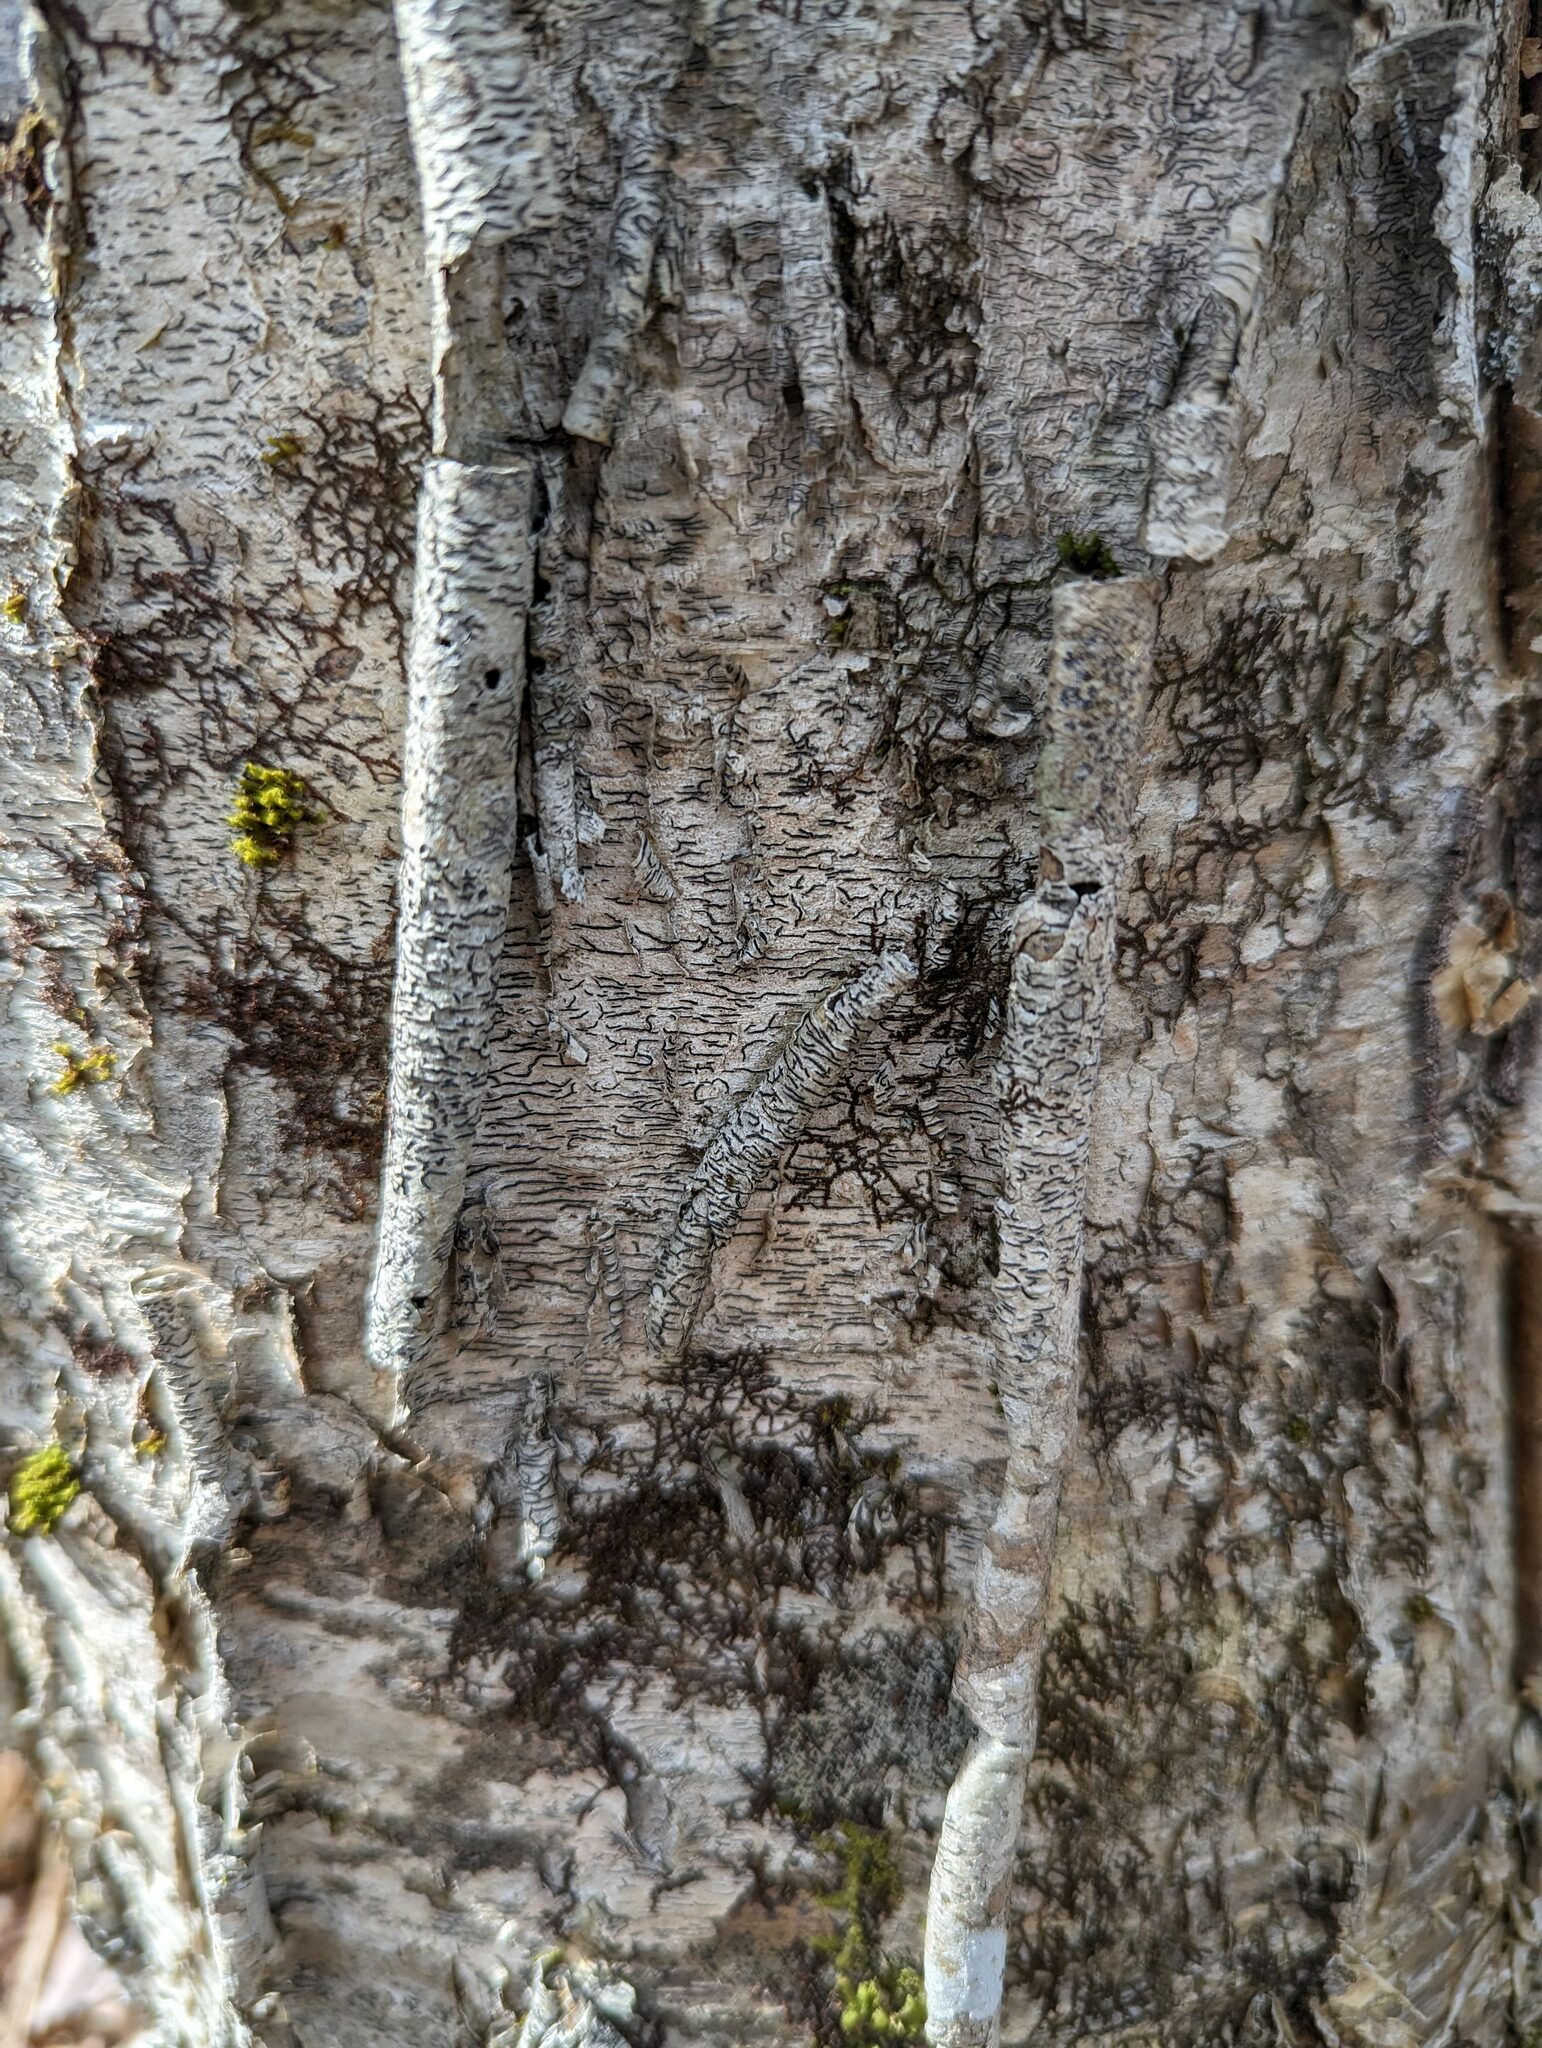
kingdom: Fungi
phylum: Ascomycota
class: Lecanoromycetes
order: Ostropales
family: Graphidaceae
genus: Graphis
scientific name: Graphis scripta
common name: Script lichen
